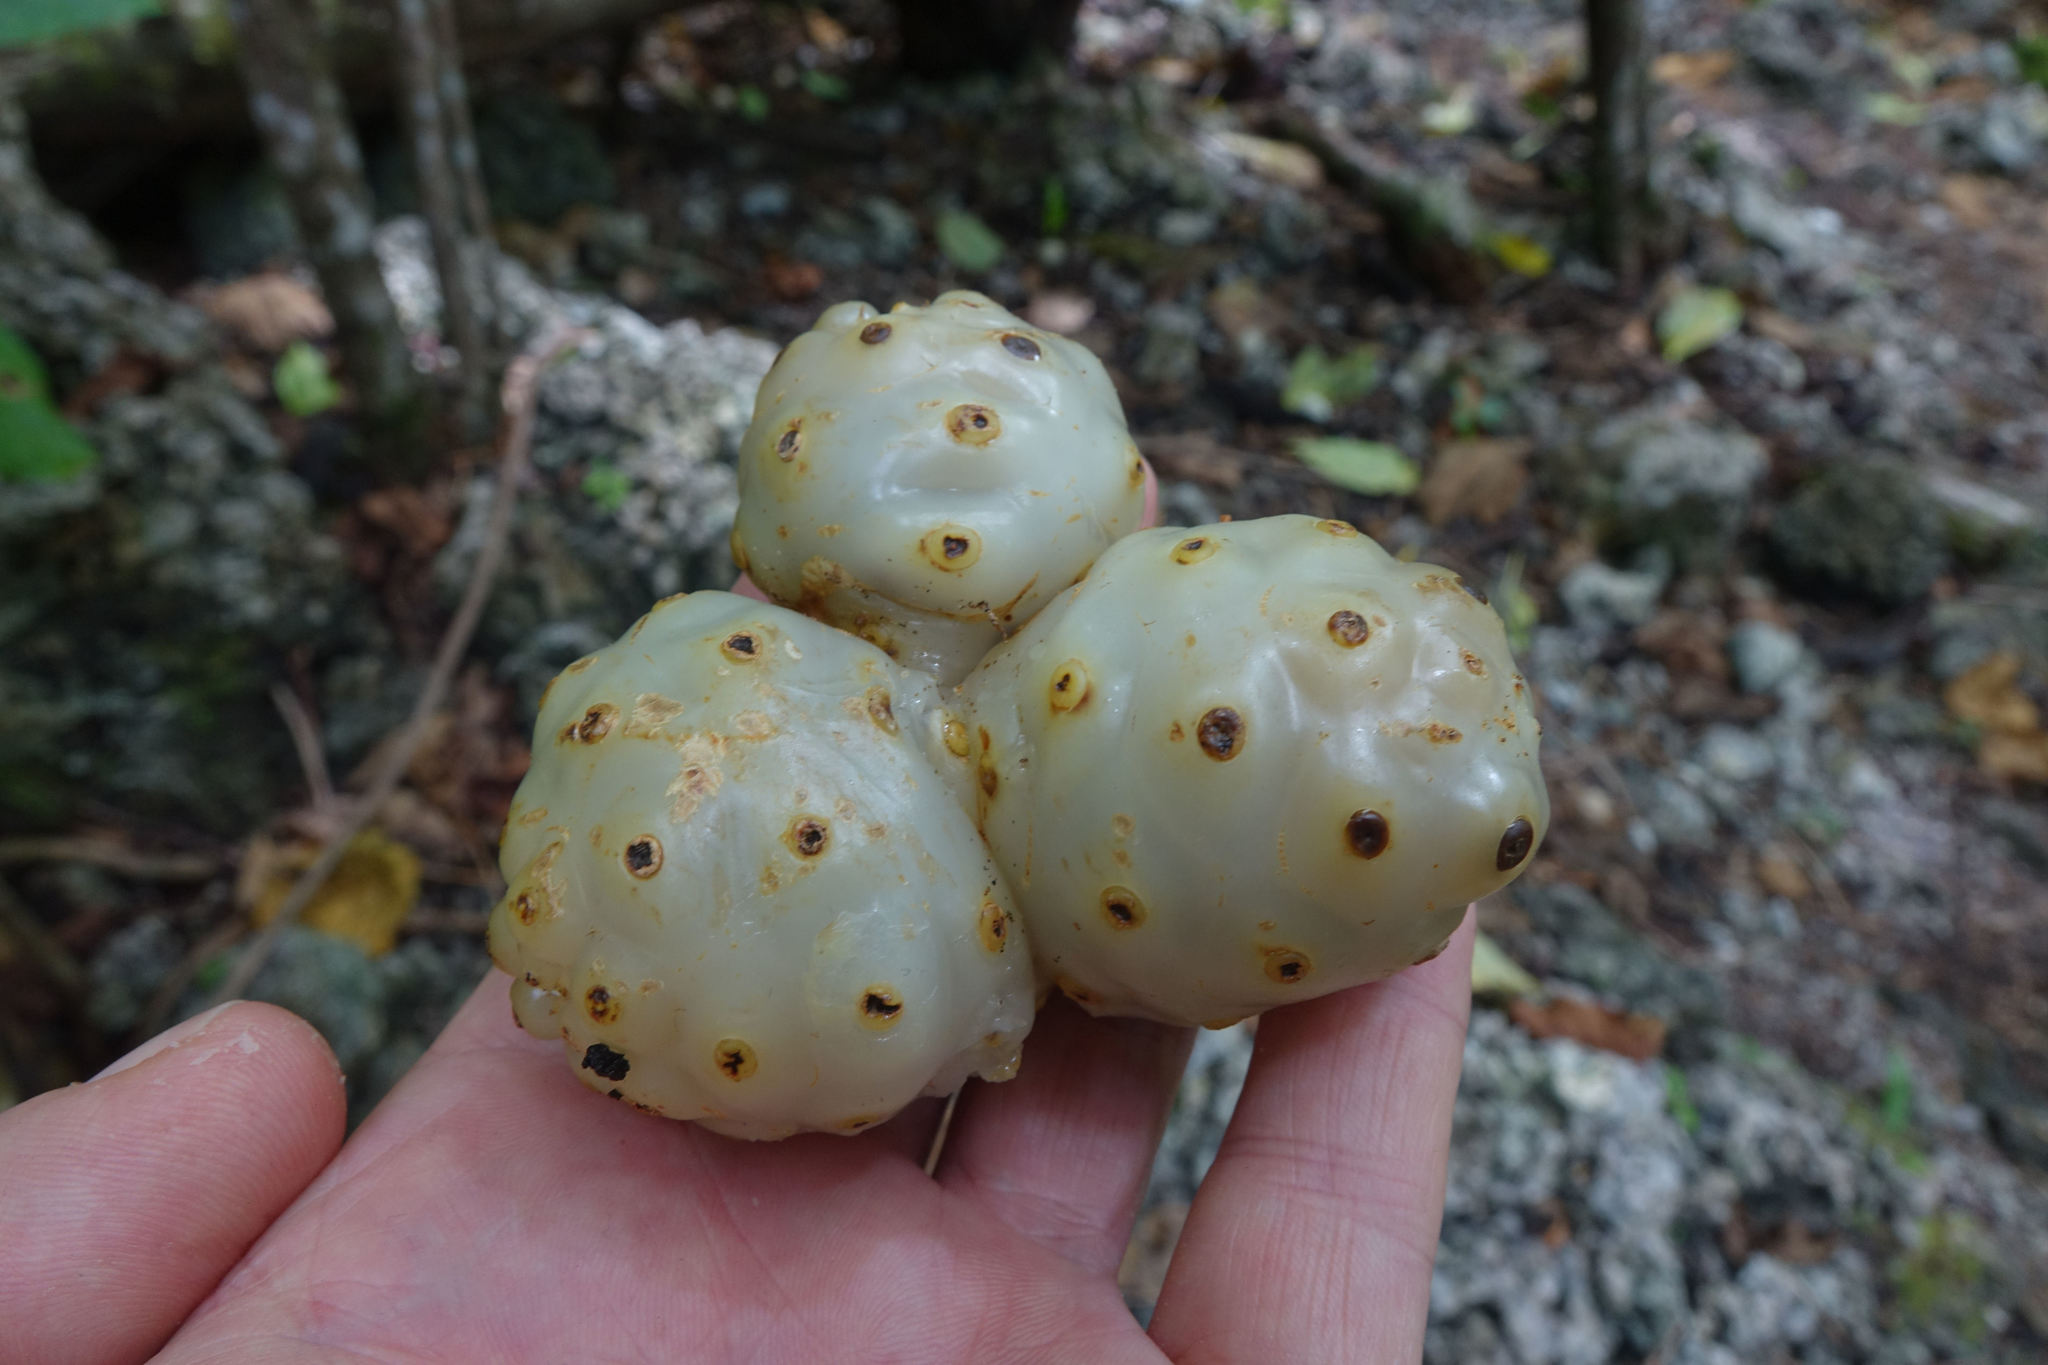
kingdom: Plantae
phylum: Tracheophyta
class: Magnoliopsida
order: Gentianales
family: Rubiaceae
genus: Morinda
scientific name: Morinda citrifolia
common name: Indian-mulberry
